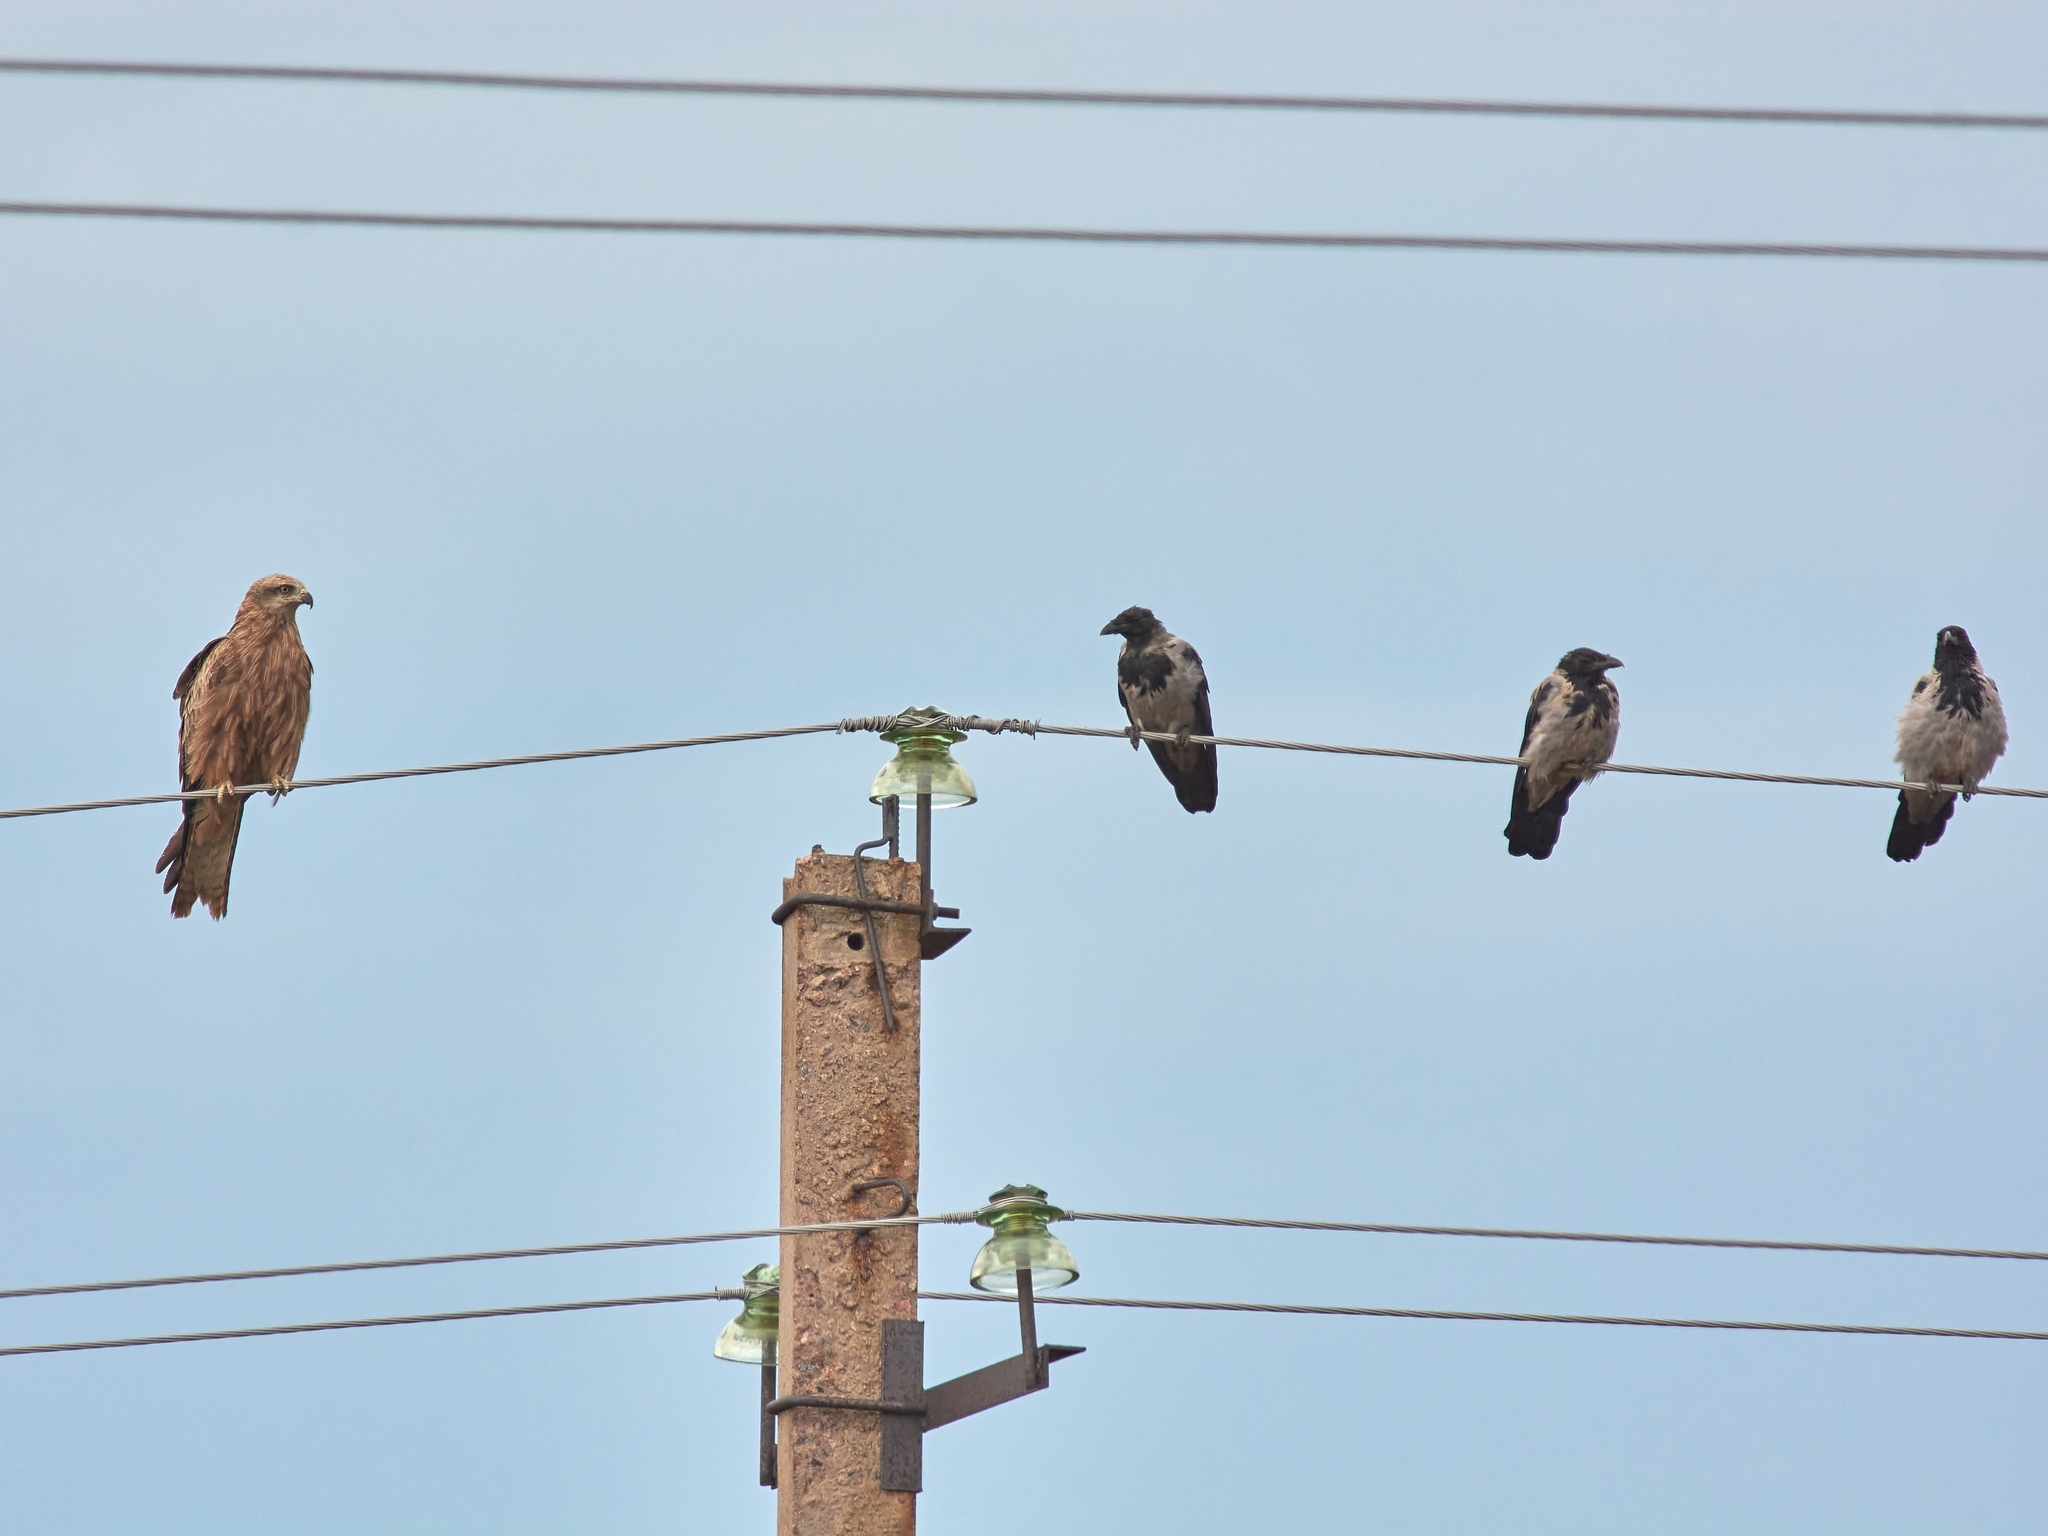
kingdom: Animalia
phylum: Chordata
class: Aves
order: Accipitriformes
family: Accipitridae
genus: Milvus
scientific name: Milvus migrans
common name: Black kite
